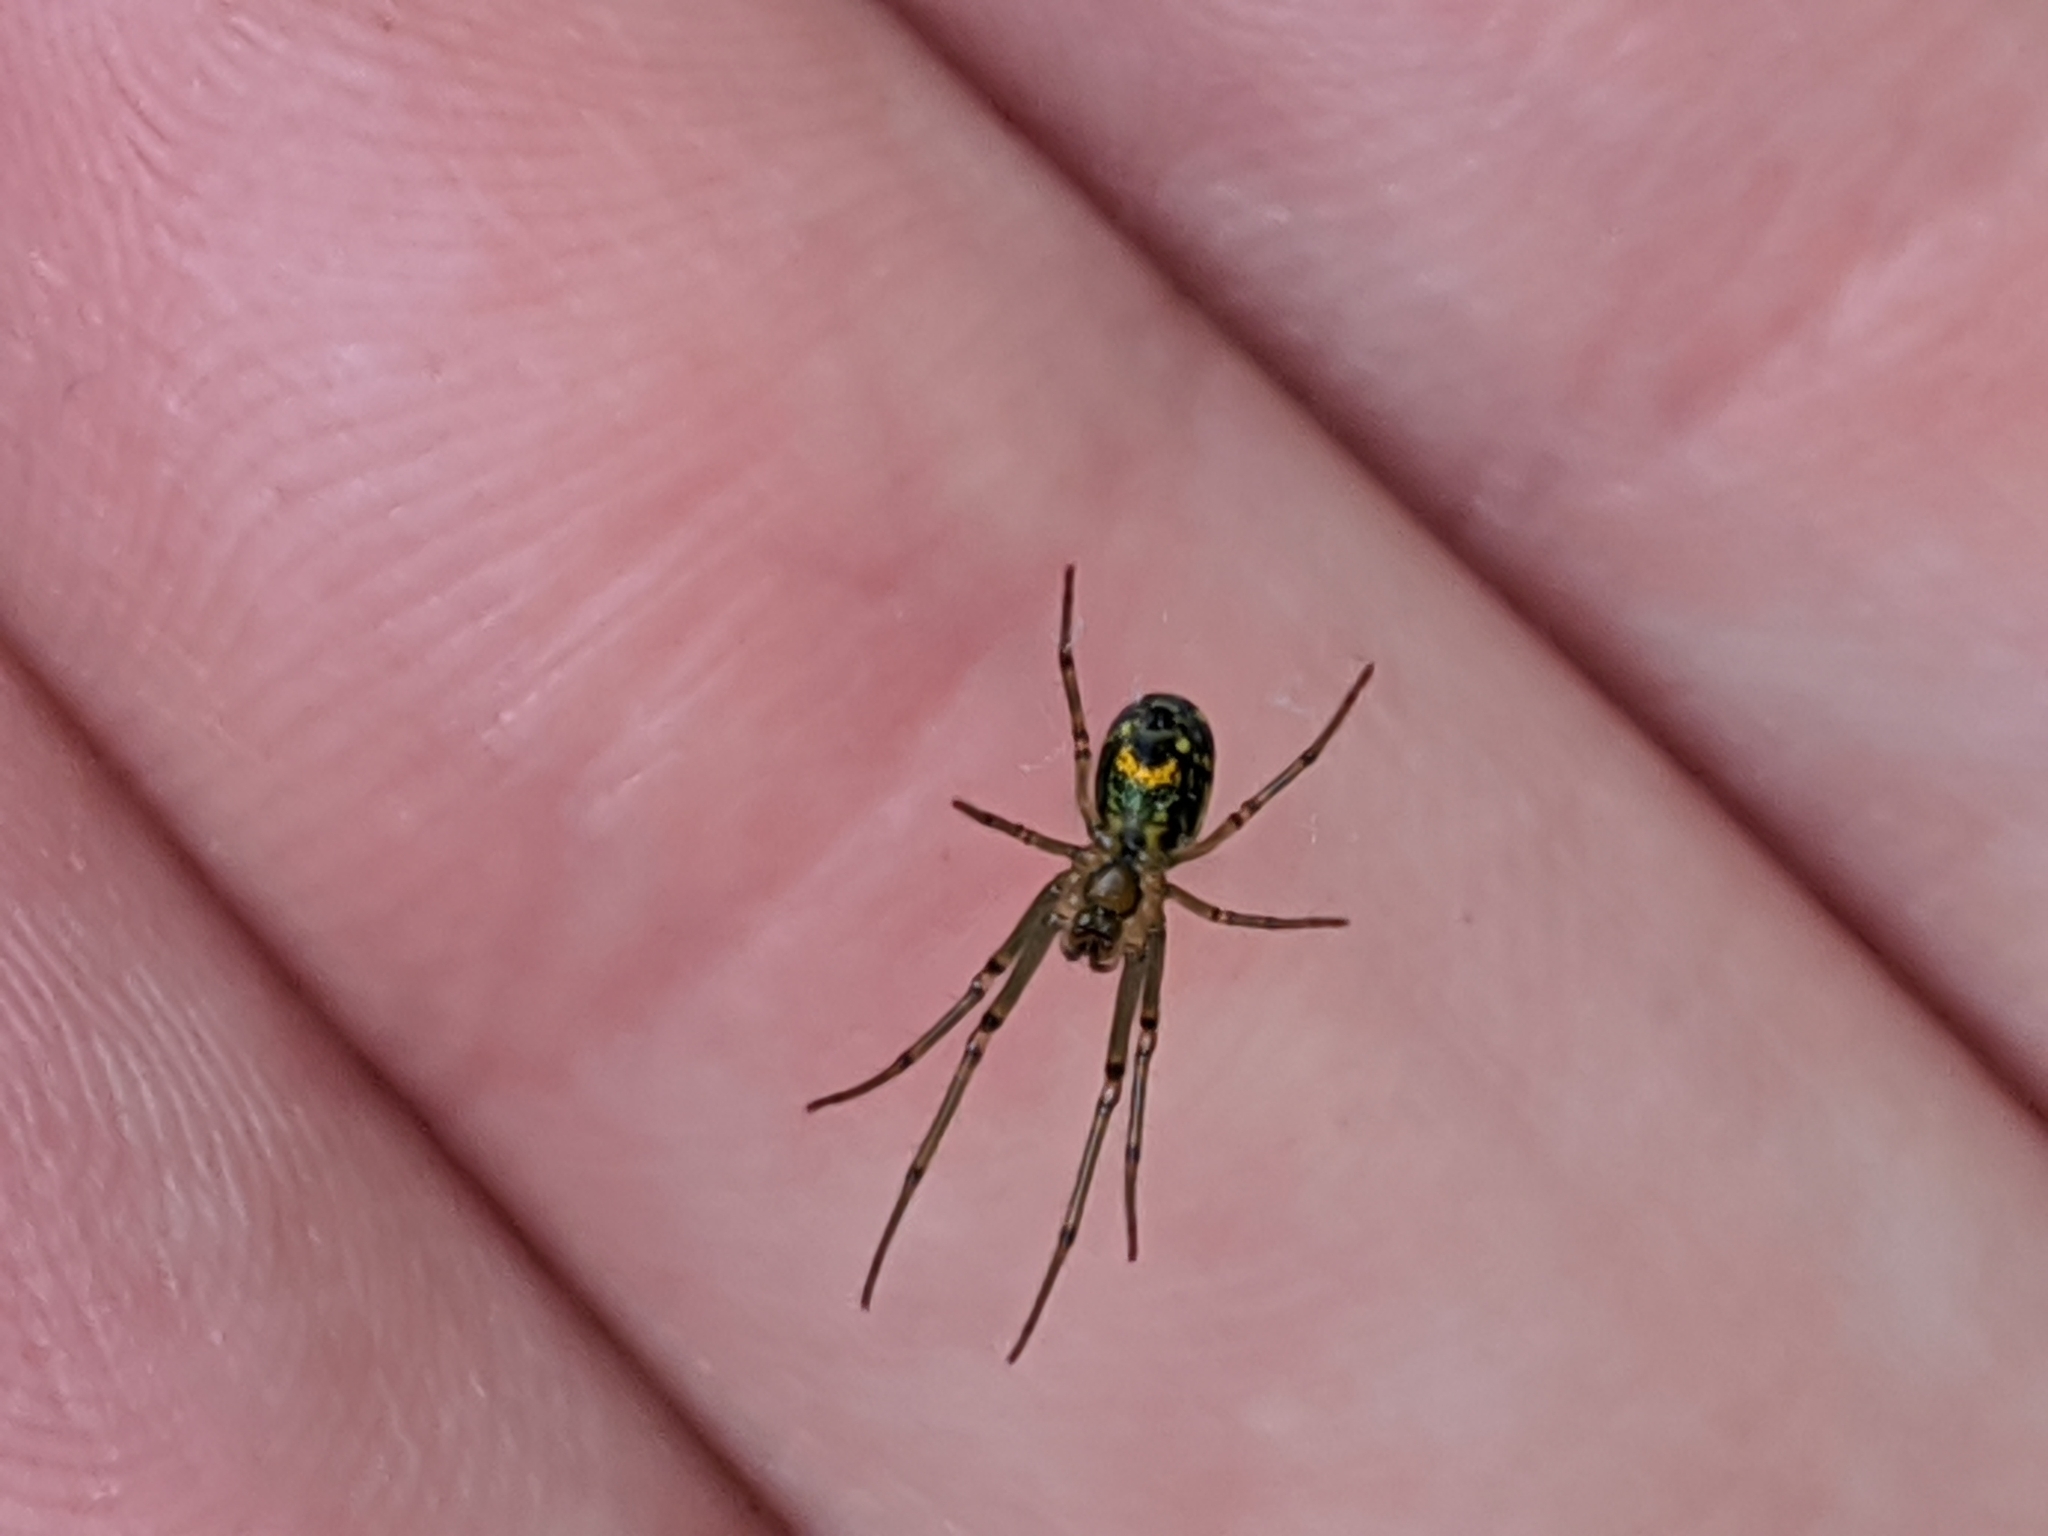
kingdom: Animalia
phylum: Arthropoda
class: Arachnida
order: Araneae
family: Tetragnathidae
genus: Leucauge
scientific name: Leucauge venusta
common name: Longjawed orb weavers
